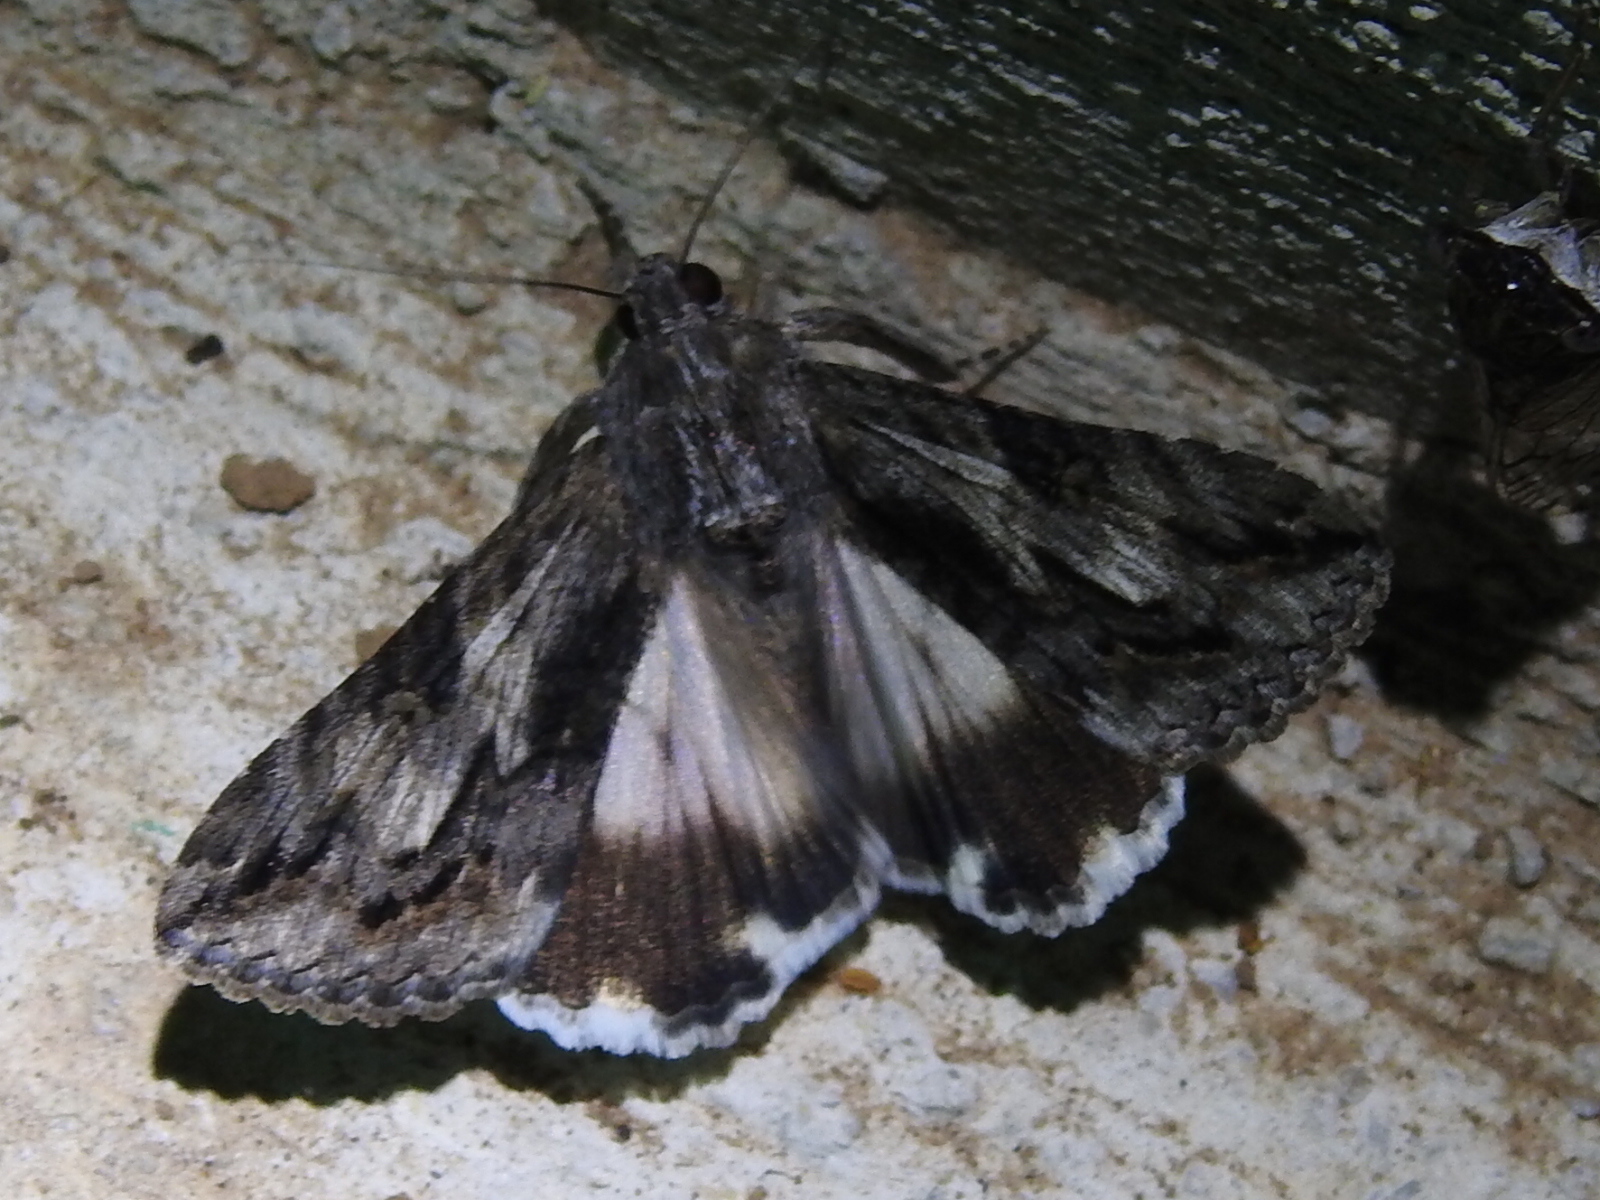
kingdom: Animalia
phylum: Arthropoda
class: Insecta
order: Lepidoptera
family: Erebidae
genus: Melipotis
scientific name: Melipotis jucunda
